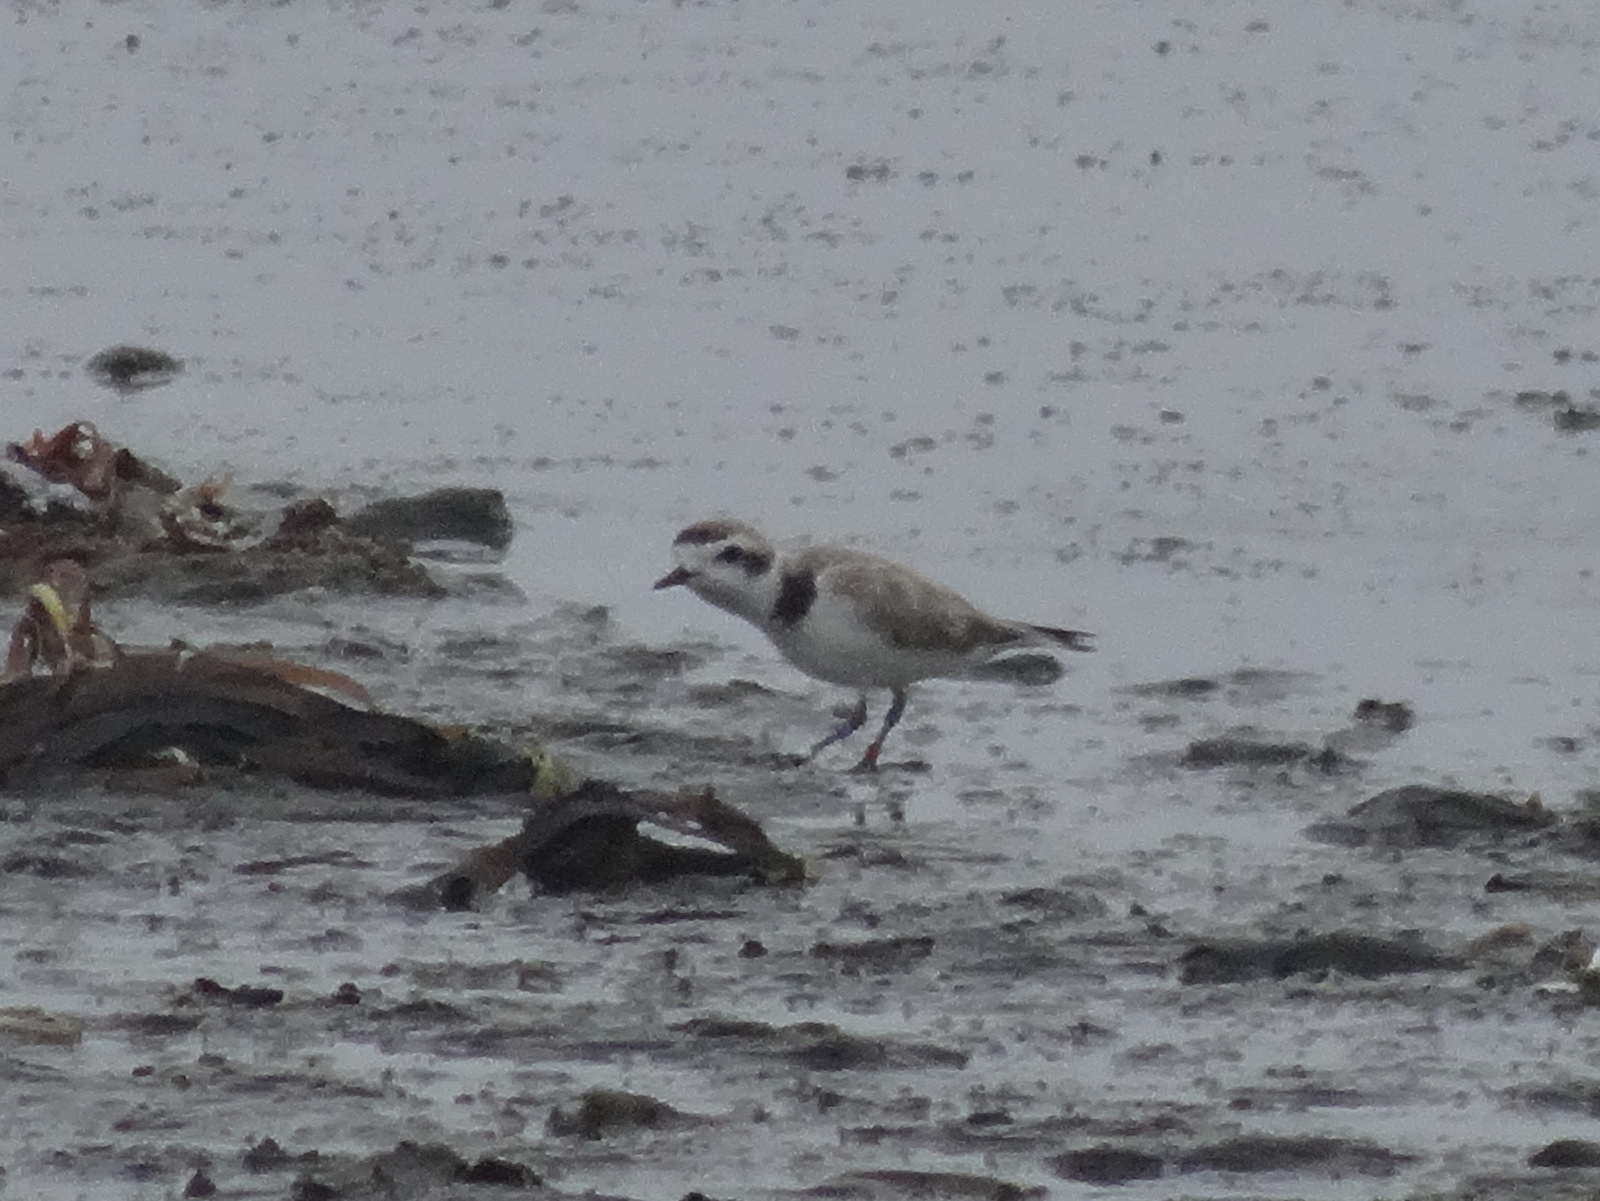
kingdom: Animalia
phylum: Chordata
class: Aves
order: Charadriiformes
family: Charadriidae
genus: Anarhynchus
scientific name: Anarhynchus
